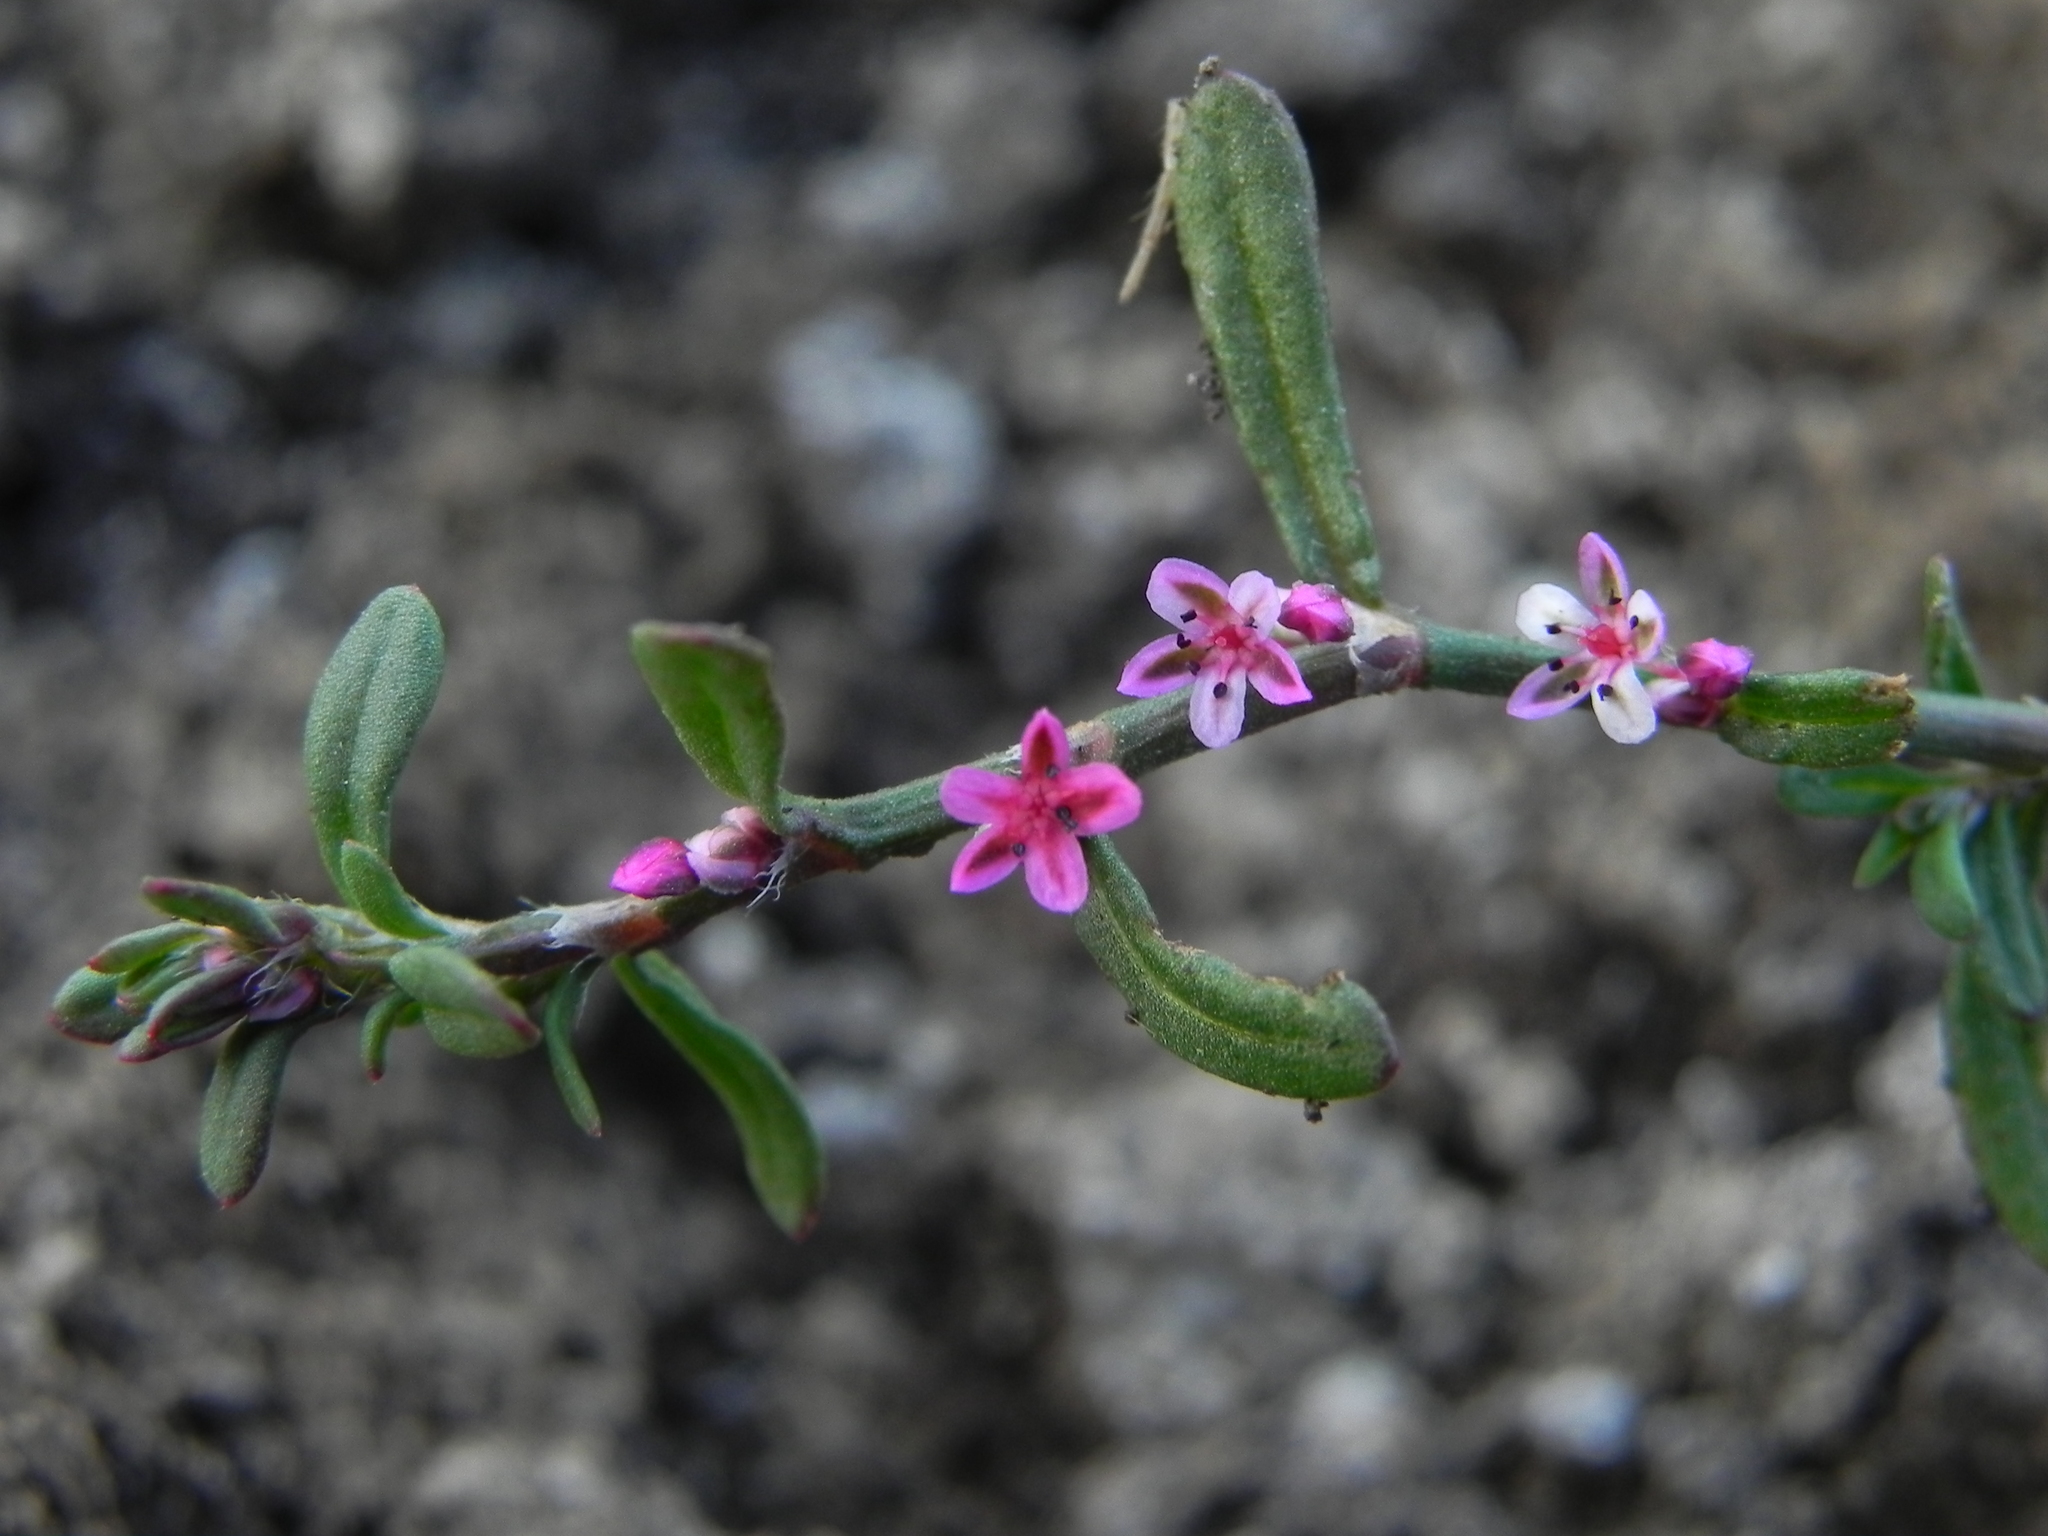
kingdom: Plantae
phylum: Tracheophyta
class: Magnoliopsida
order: Caryophyllales
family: Polygonaceae
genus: Polygonum
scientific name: Polygonum plebeium
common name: Common knotweed
